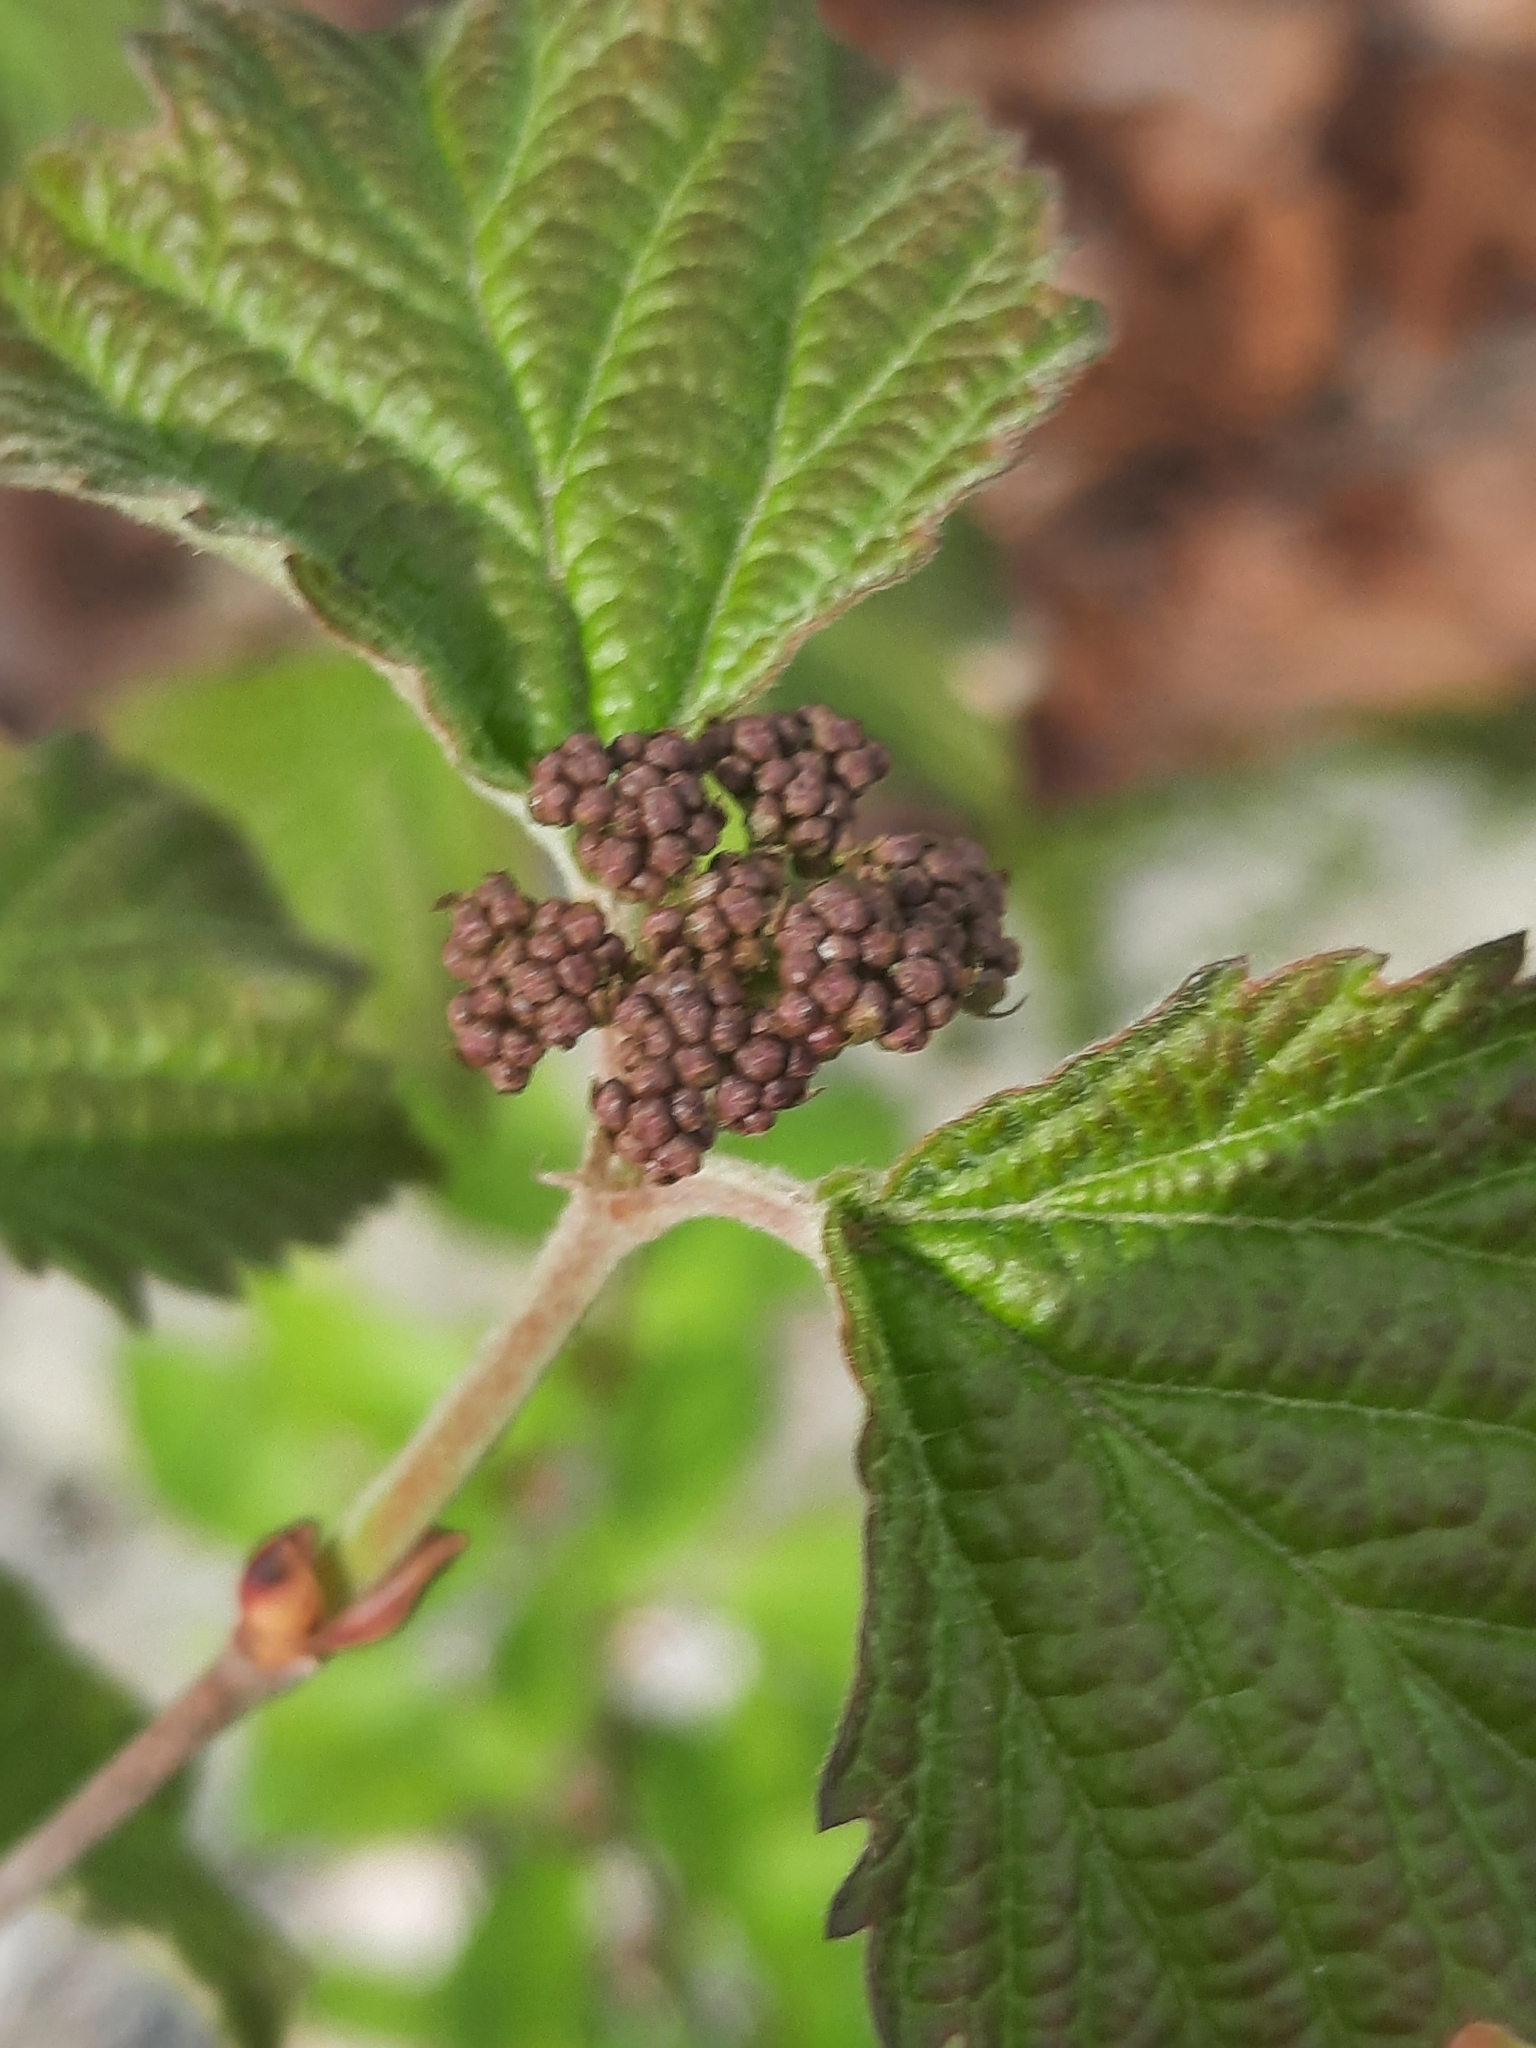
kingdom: Plantae
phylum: Tracheophyta
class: Magnoliopsida
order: Dipsacales
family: Viburnaceae
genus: Viburnum
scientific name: Viburnum acerifolium
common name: Dockmackie
